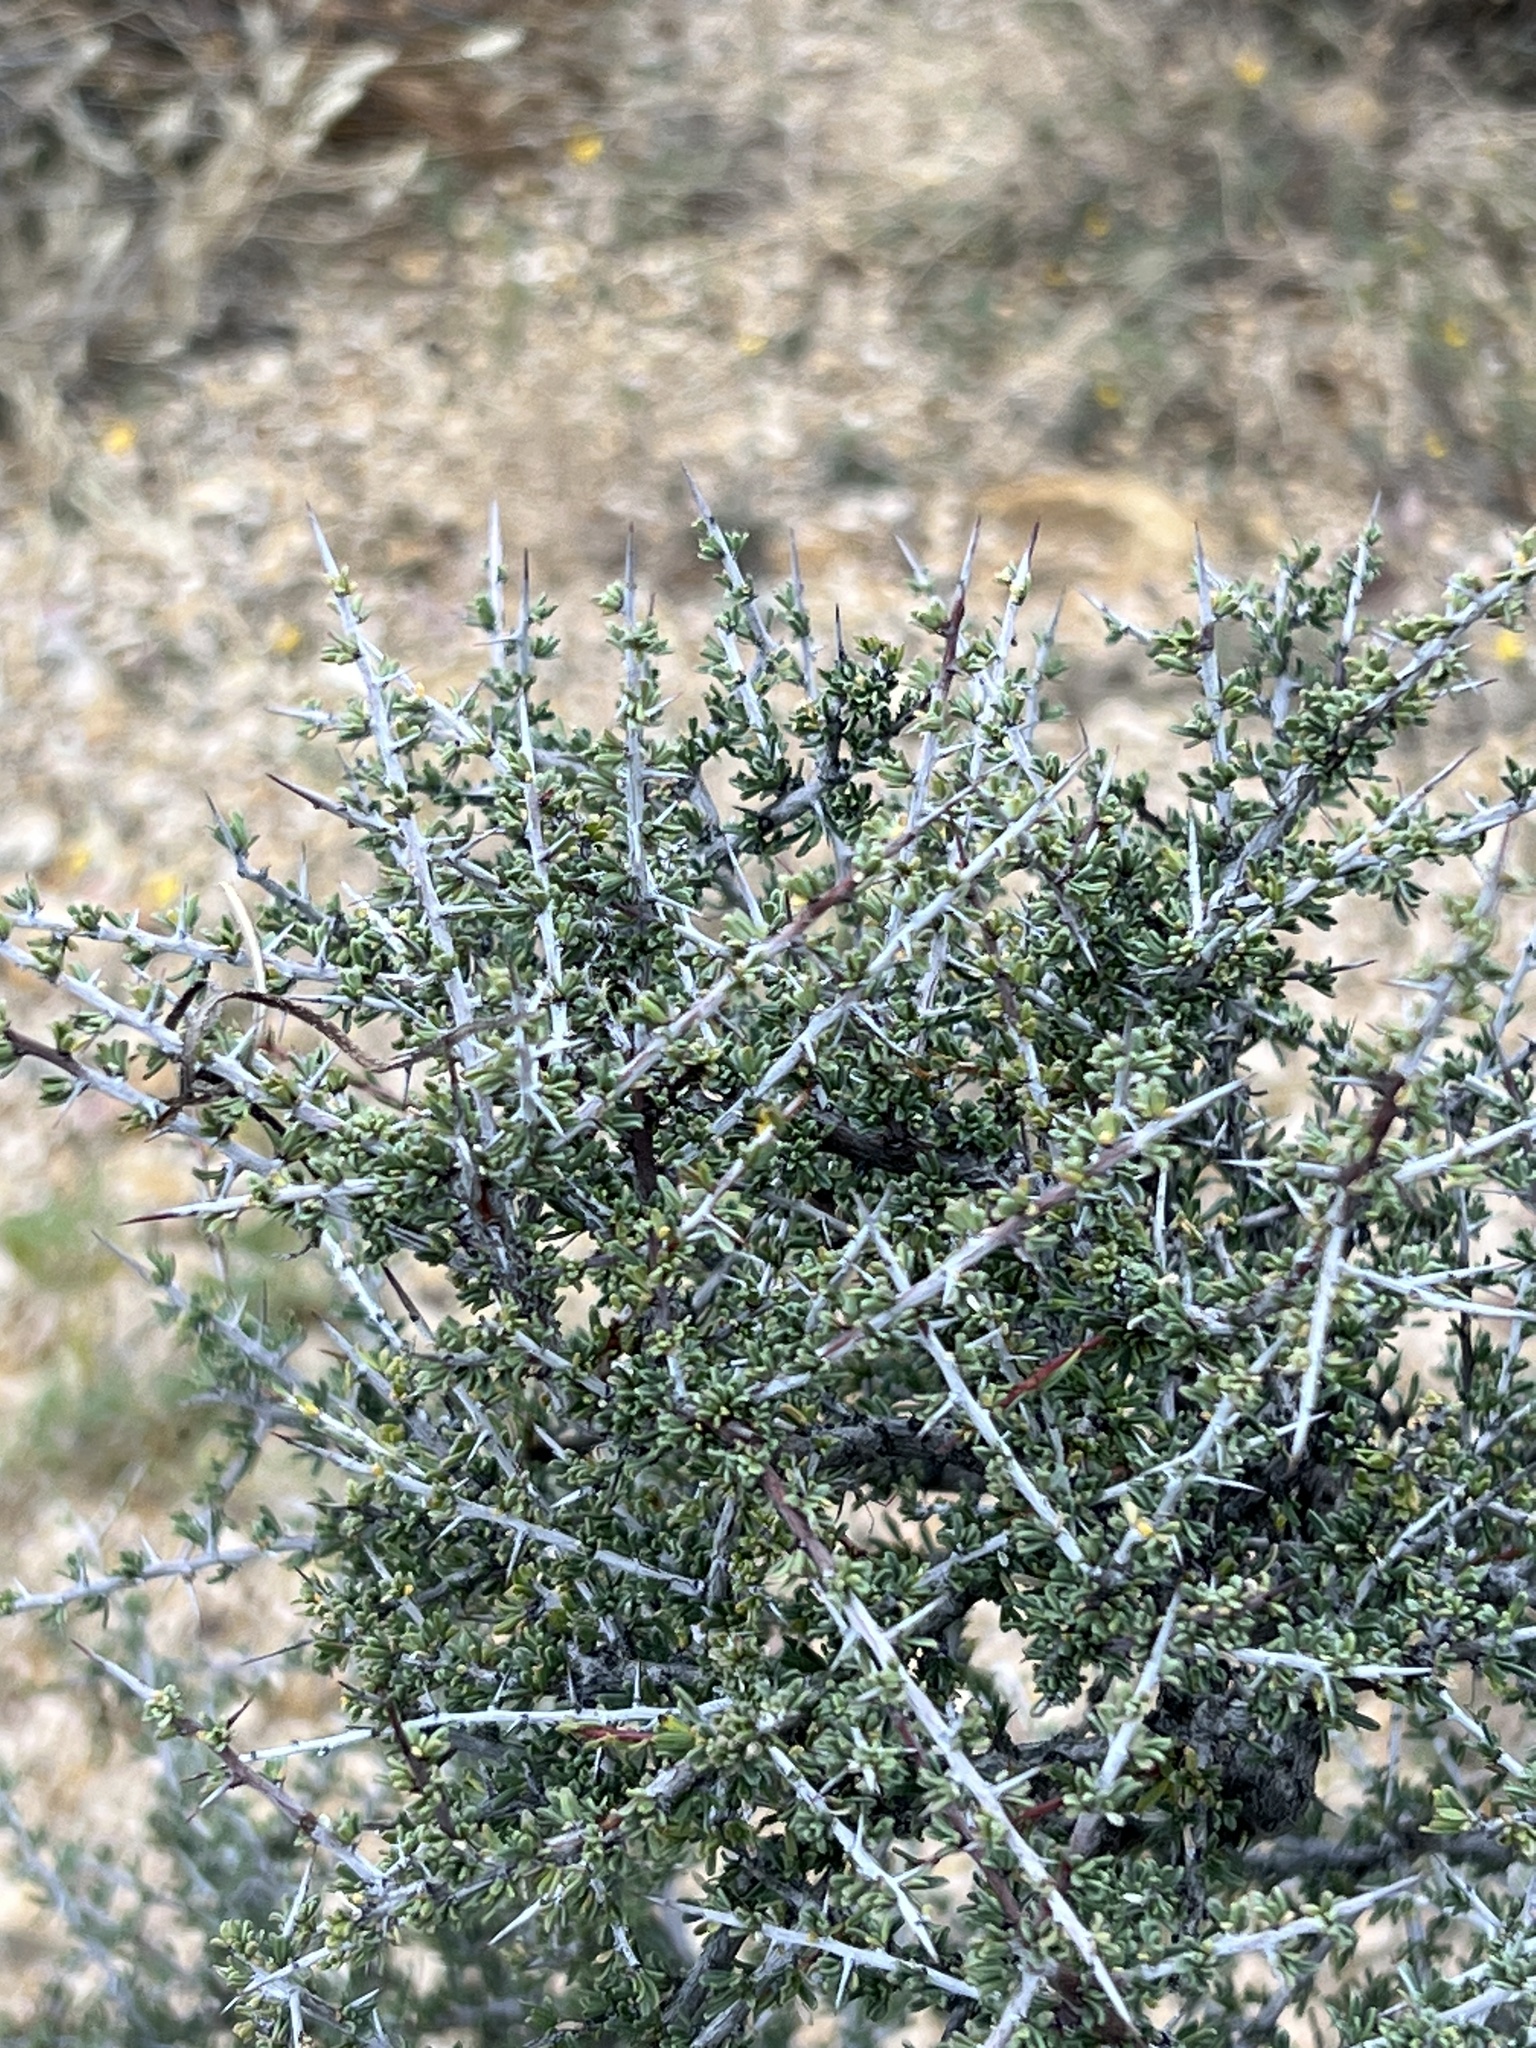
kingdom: Plantae
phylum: Tracheophyta
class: Magnoliopsida
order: Rosales
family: Rhamnaceae
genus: Condalia
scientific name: Condalia ericoides
